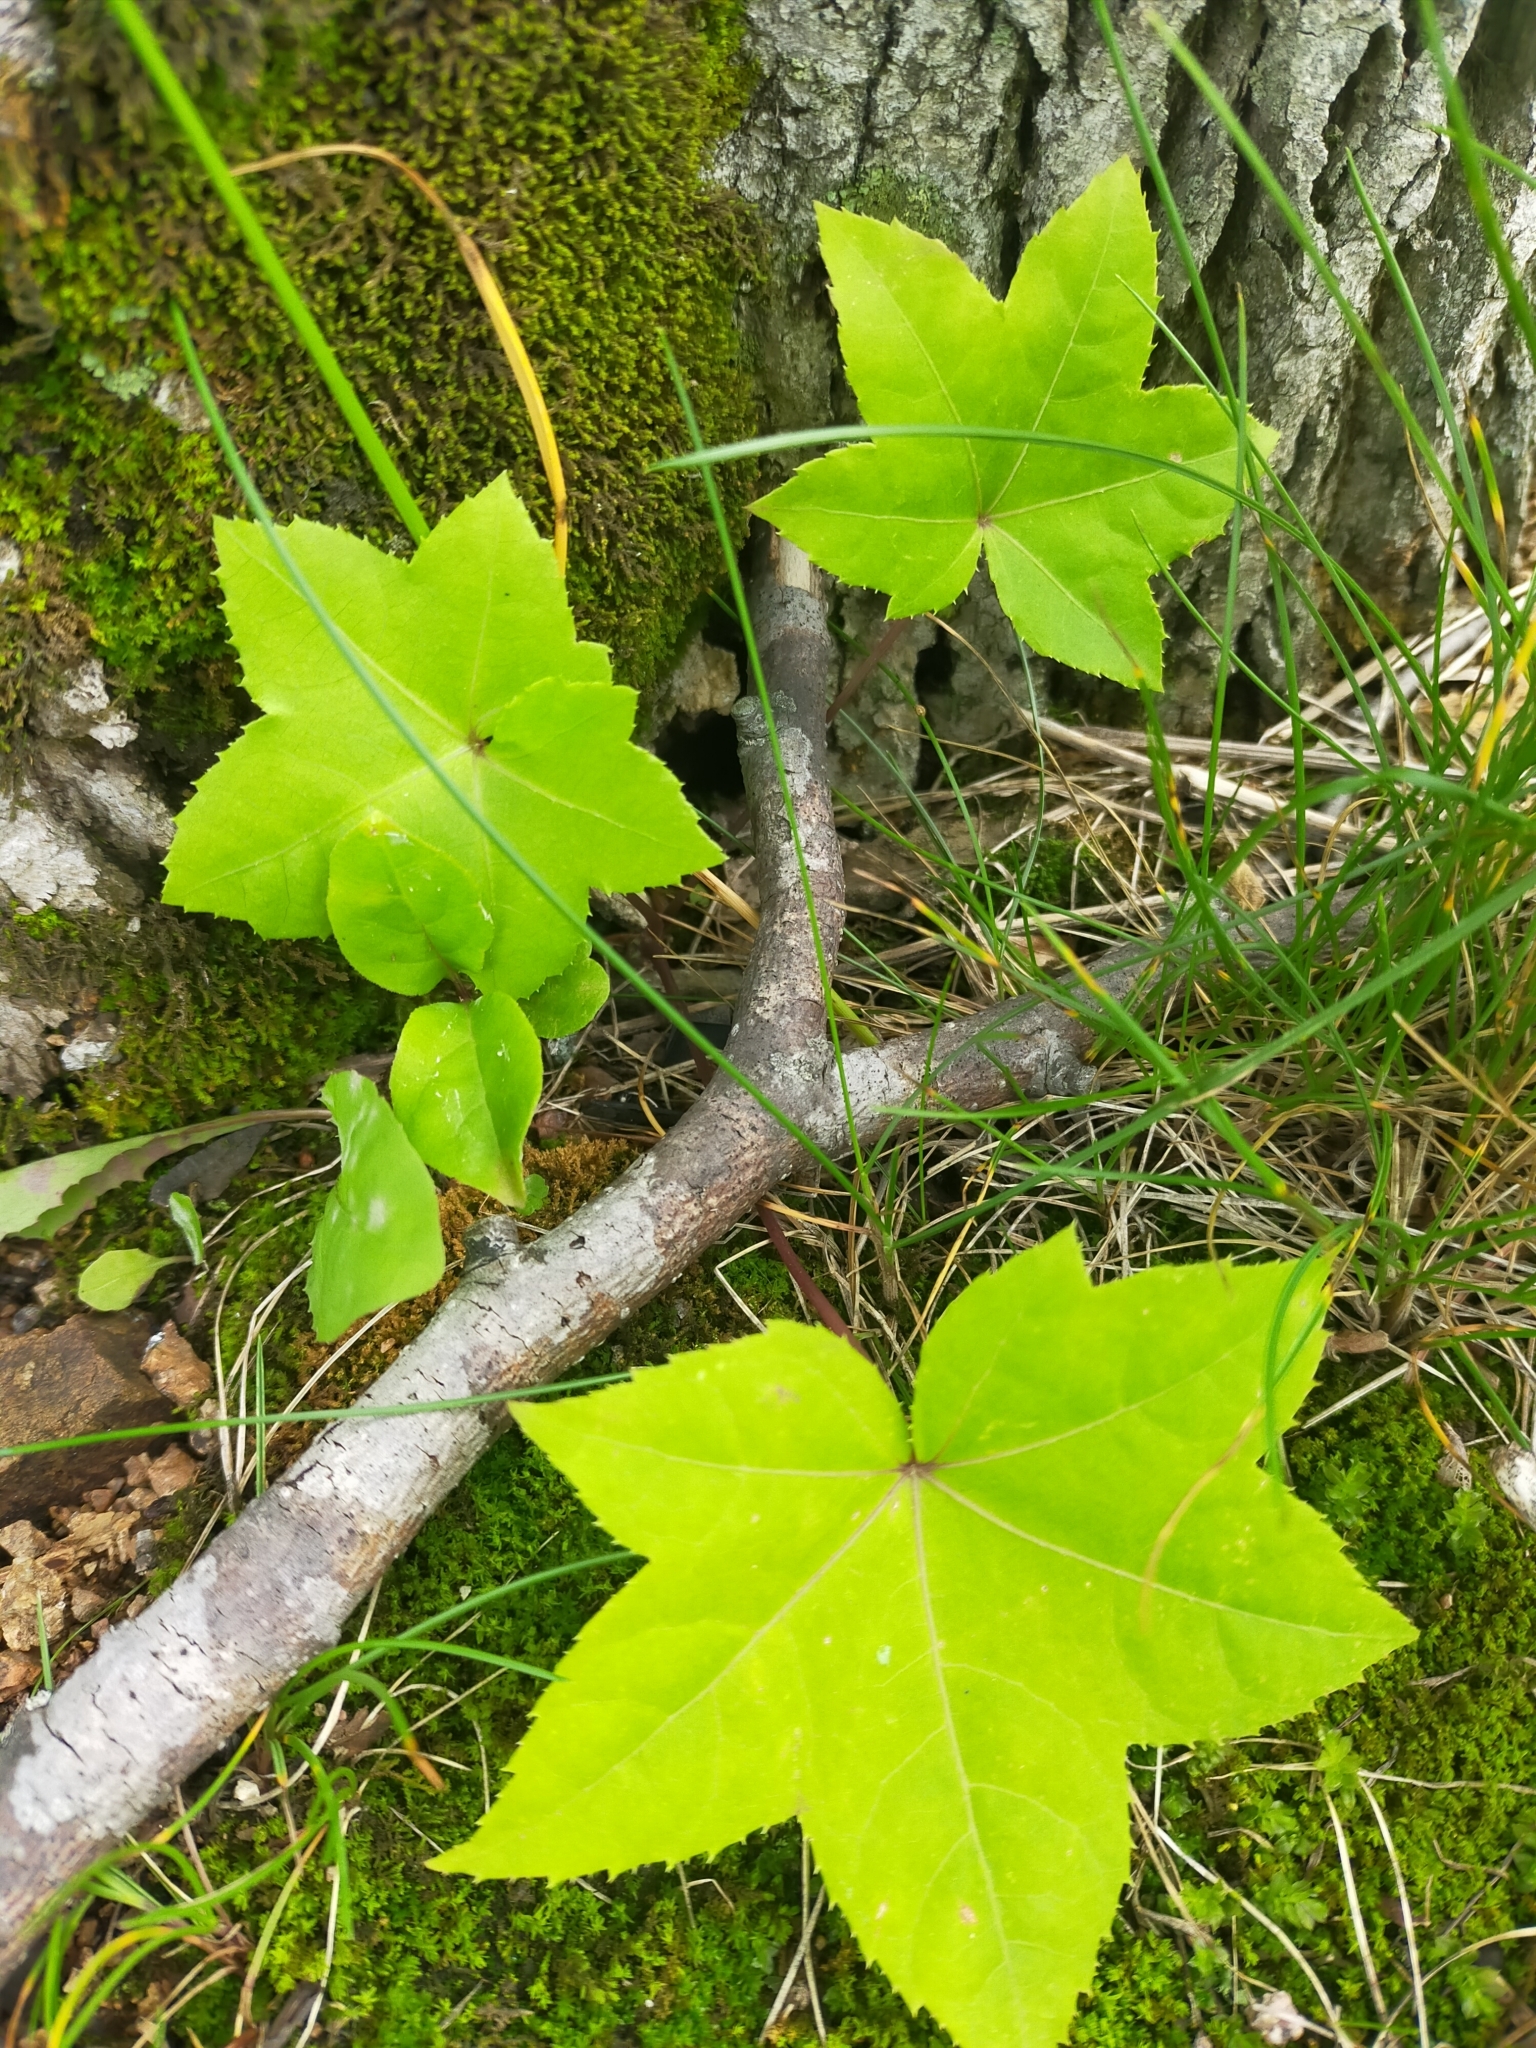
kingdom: Plantae
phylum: Tracheophyta
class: Magnoliopsida
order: Apiales
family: Araliaceae
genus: Kalopanax
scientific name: Kalopanax septemlobus
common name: Castor aralia
